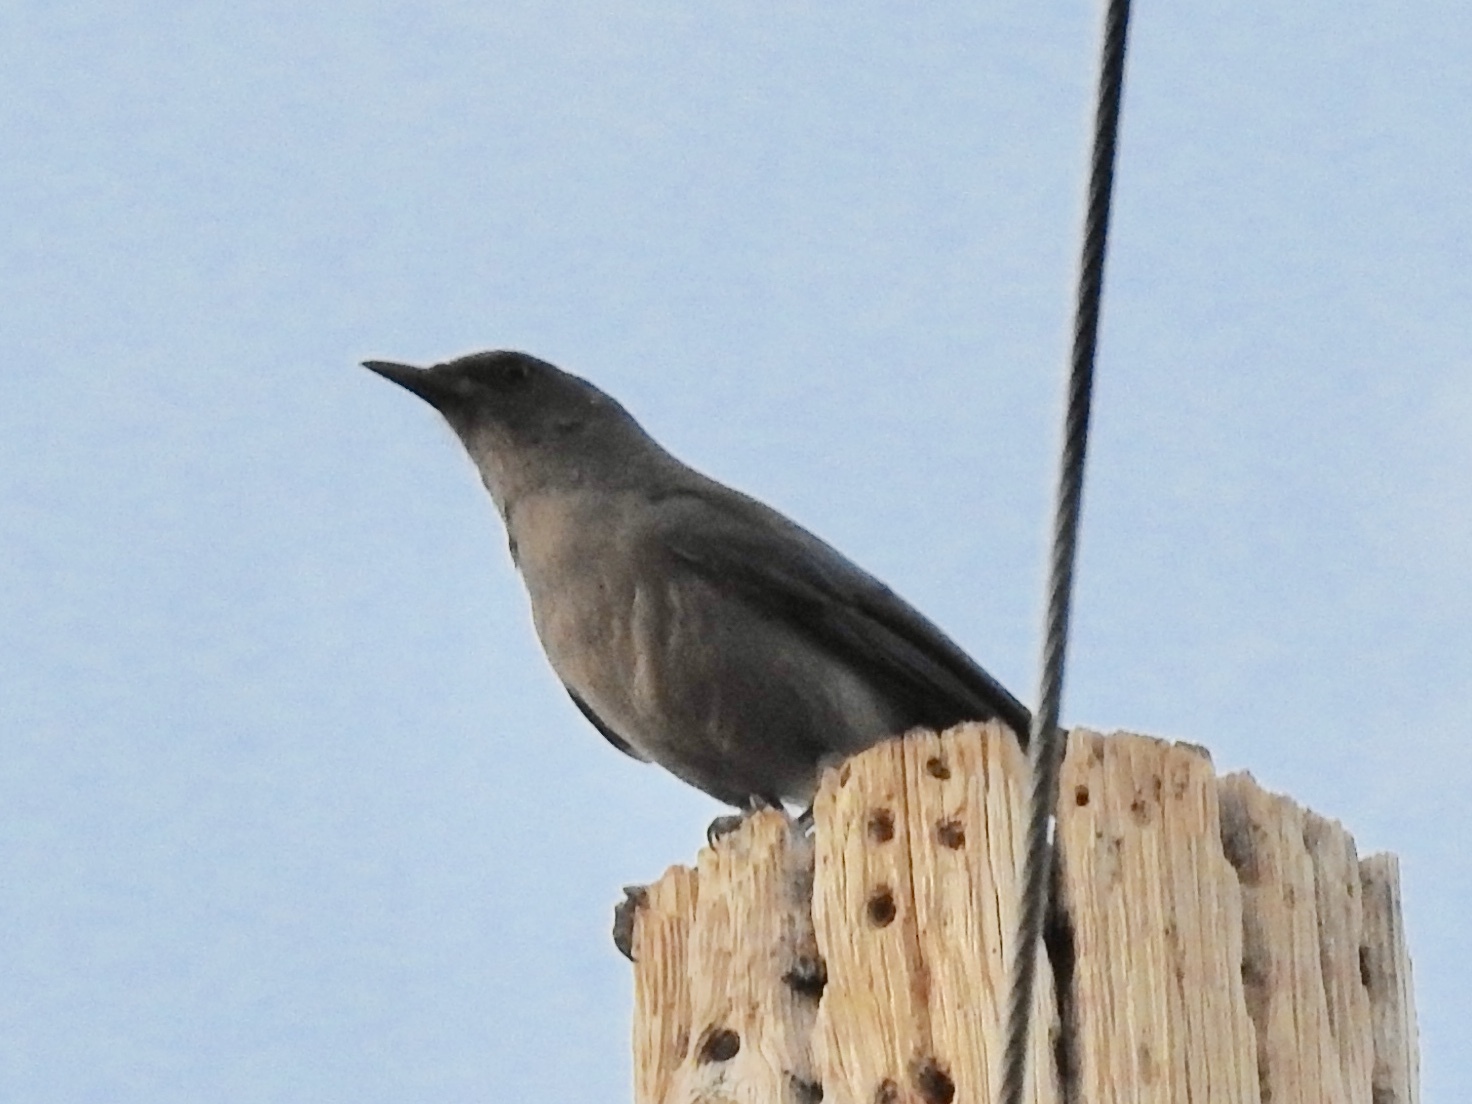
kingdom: Animalia
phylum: Chordata
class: Aves
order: Passeriformes
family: Corvidae
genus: Aphelocoma
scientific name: Aphelocoma wollweberi
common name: Mexican jay
